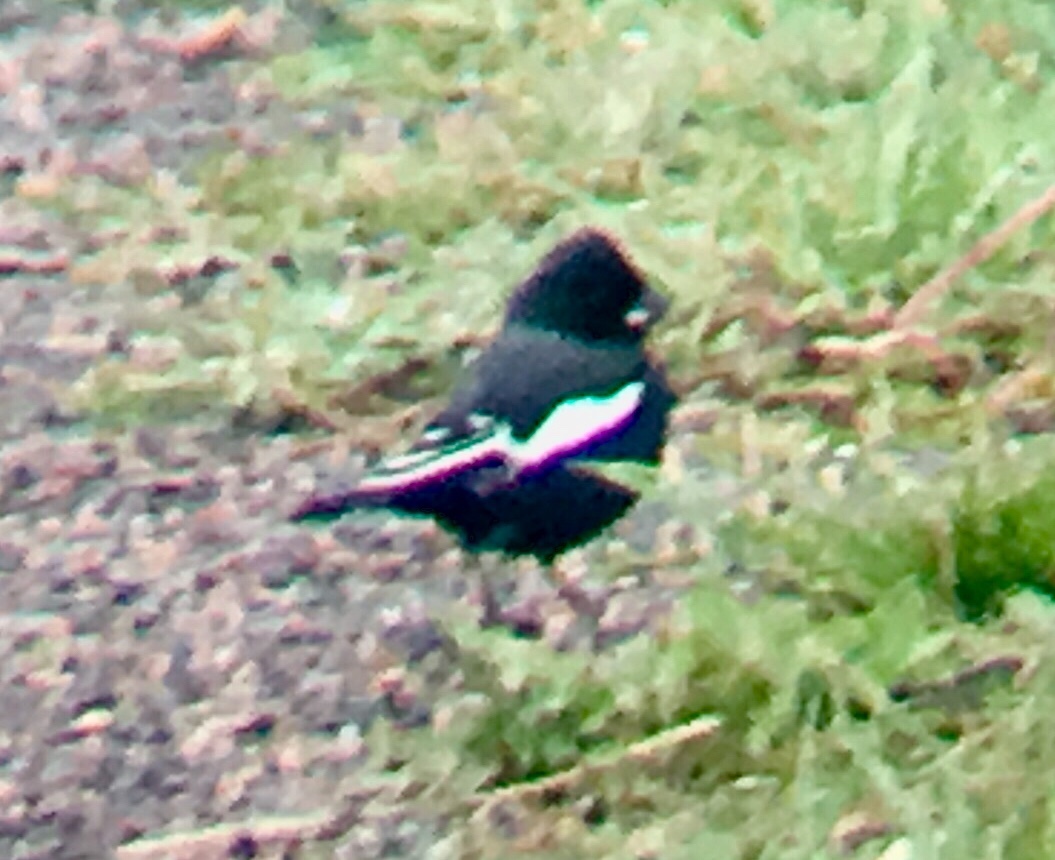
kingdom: Animalia
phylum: Chordata
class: Aves
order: Passeriformes
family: Passerellidae
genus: Calamospiza
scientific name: Calamospiza melanocorys
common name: Lark bunting
